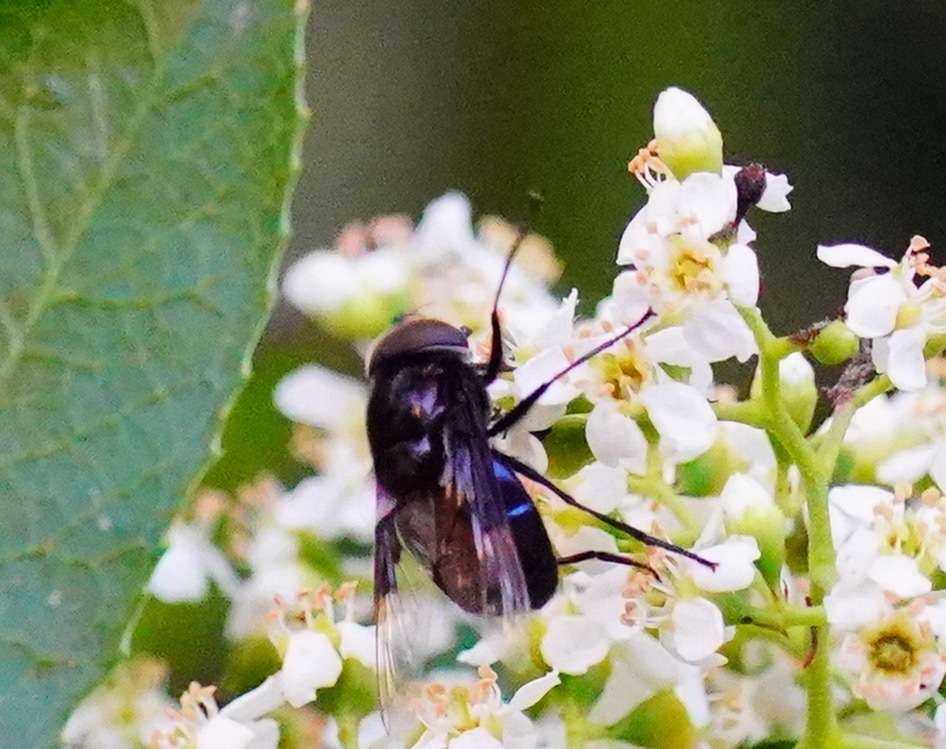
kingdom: Animalia
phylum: Arthropoda
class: Insecta
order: Diptera
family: Syrphidae
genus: Copestylum
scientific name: Copestylum violaceum
